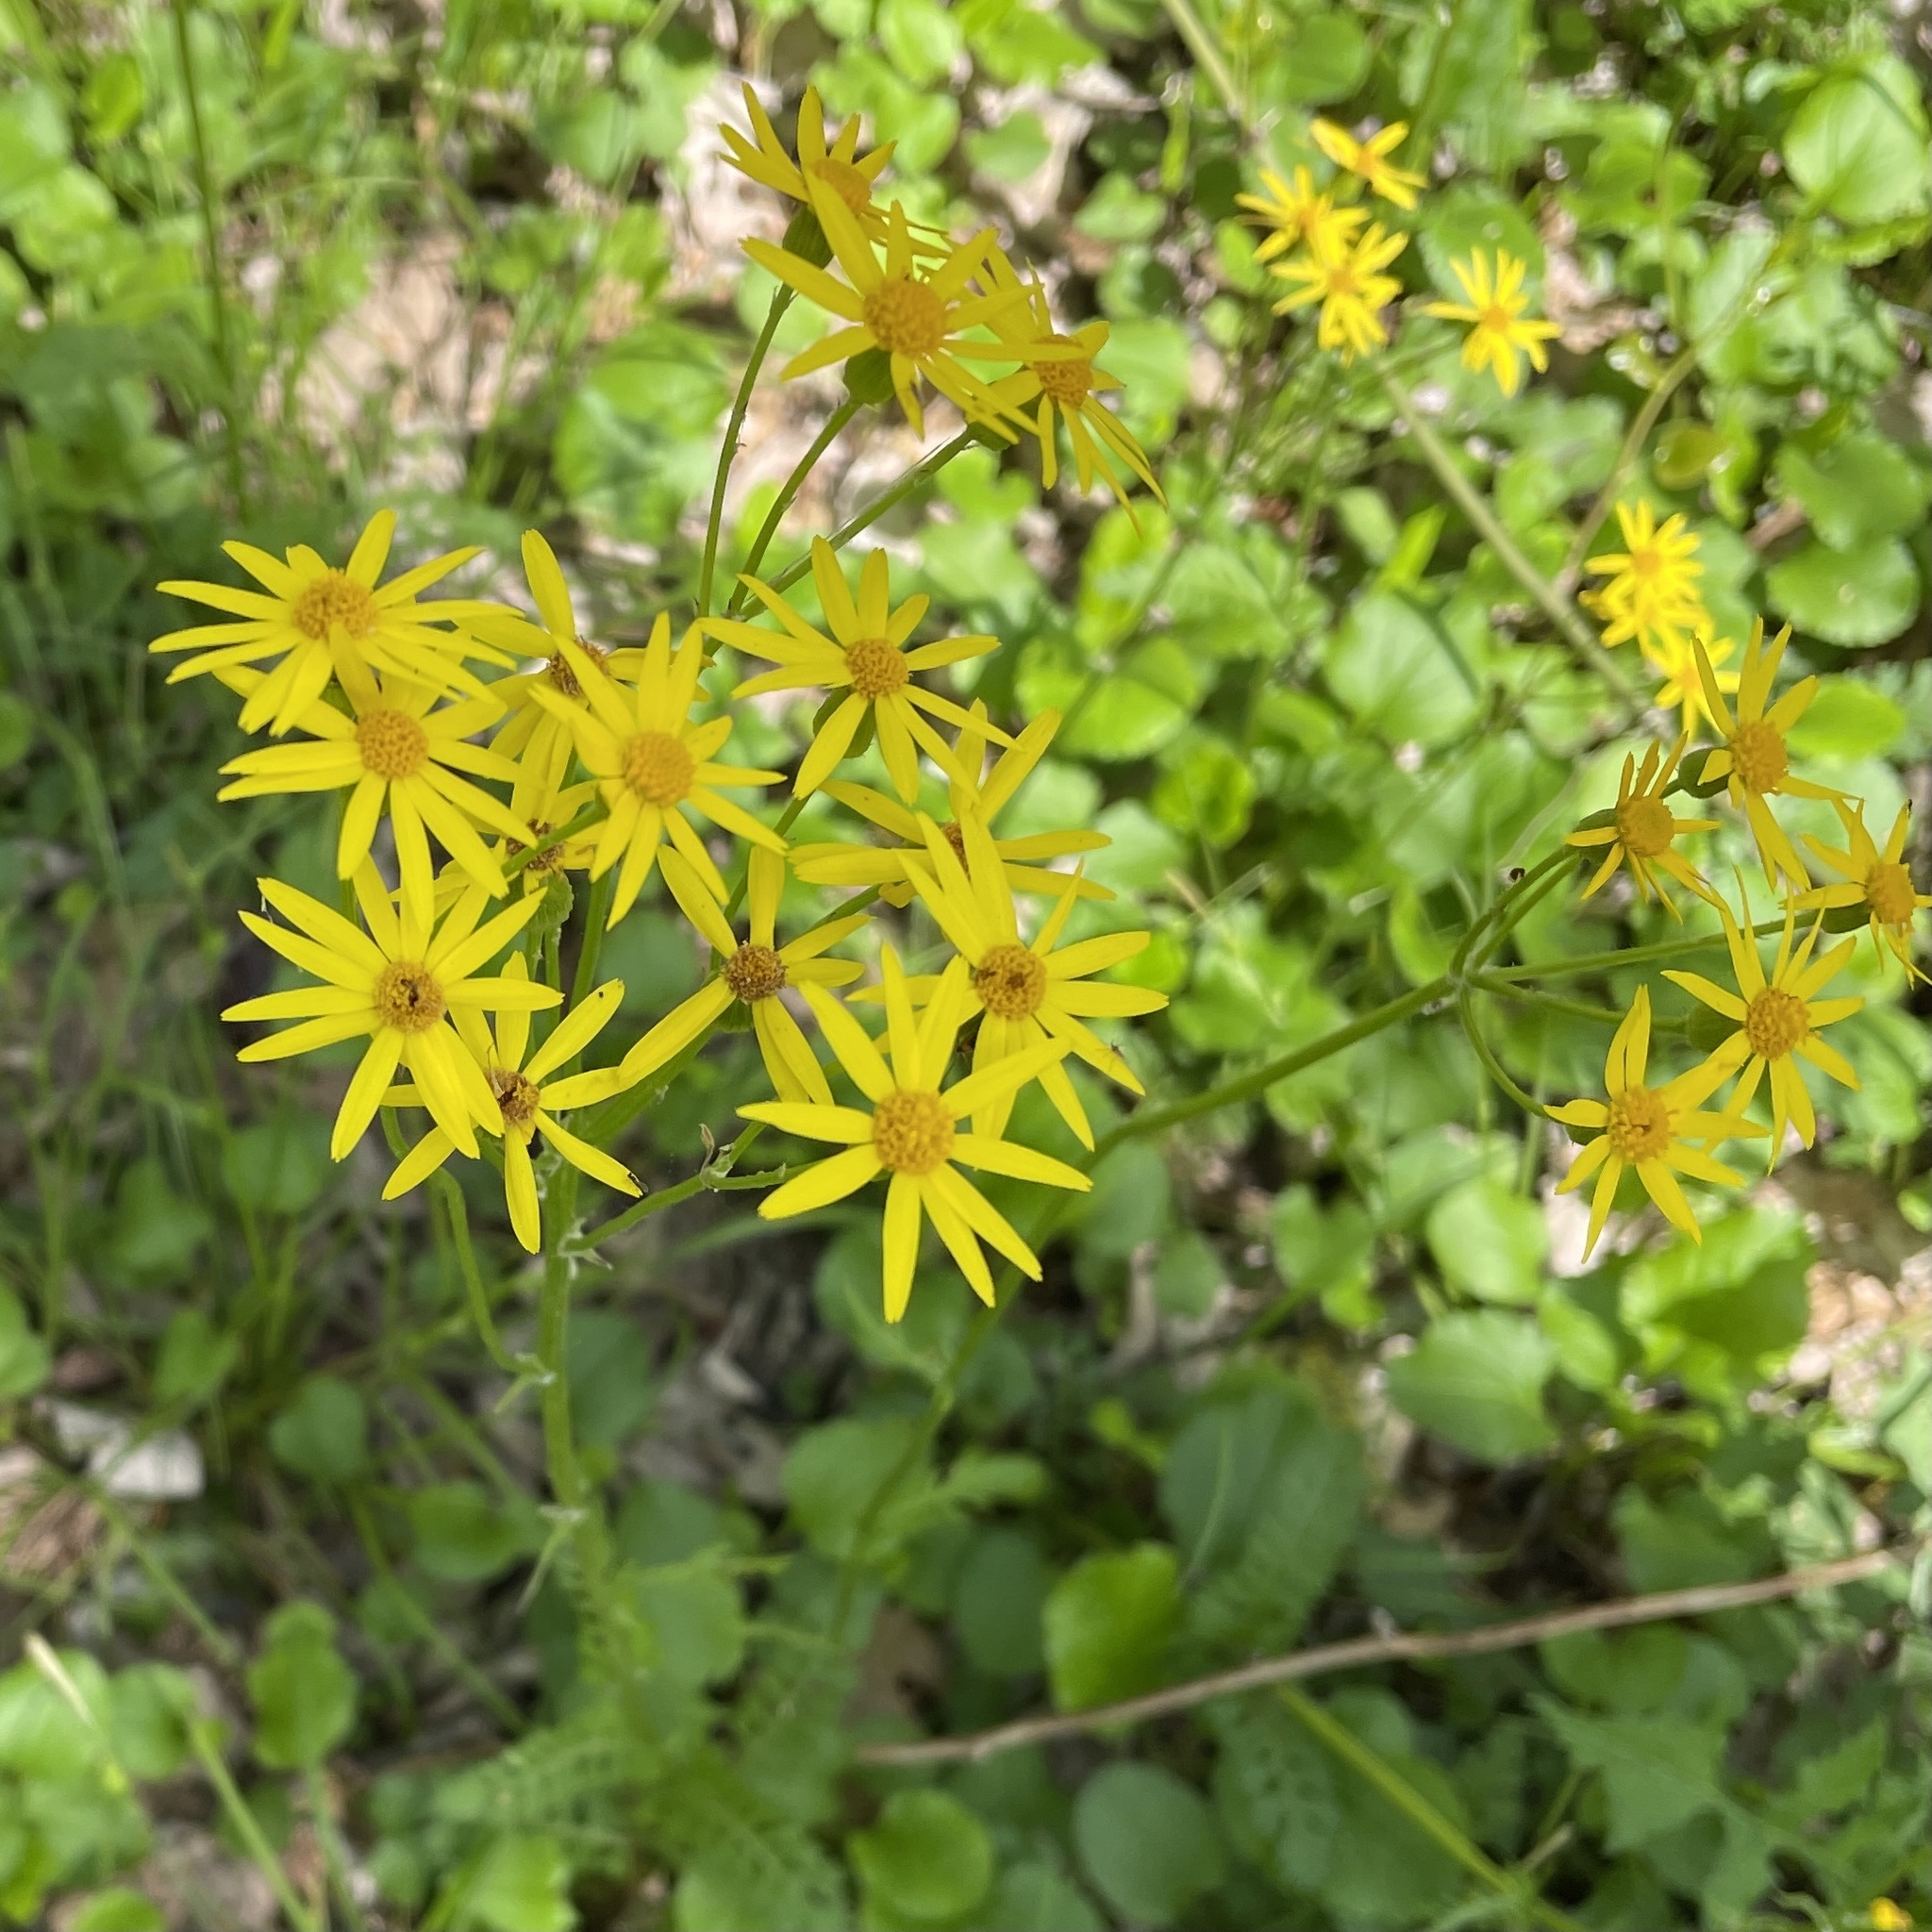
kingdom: Plantae
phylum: Tracheophyta
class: Magnoliopsida
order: Asterales
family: Asteraceae
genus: Packera
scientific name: Packera obovata
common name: Round-leaf ragwort
